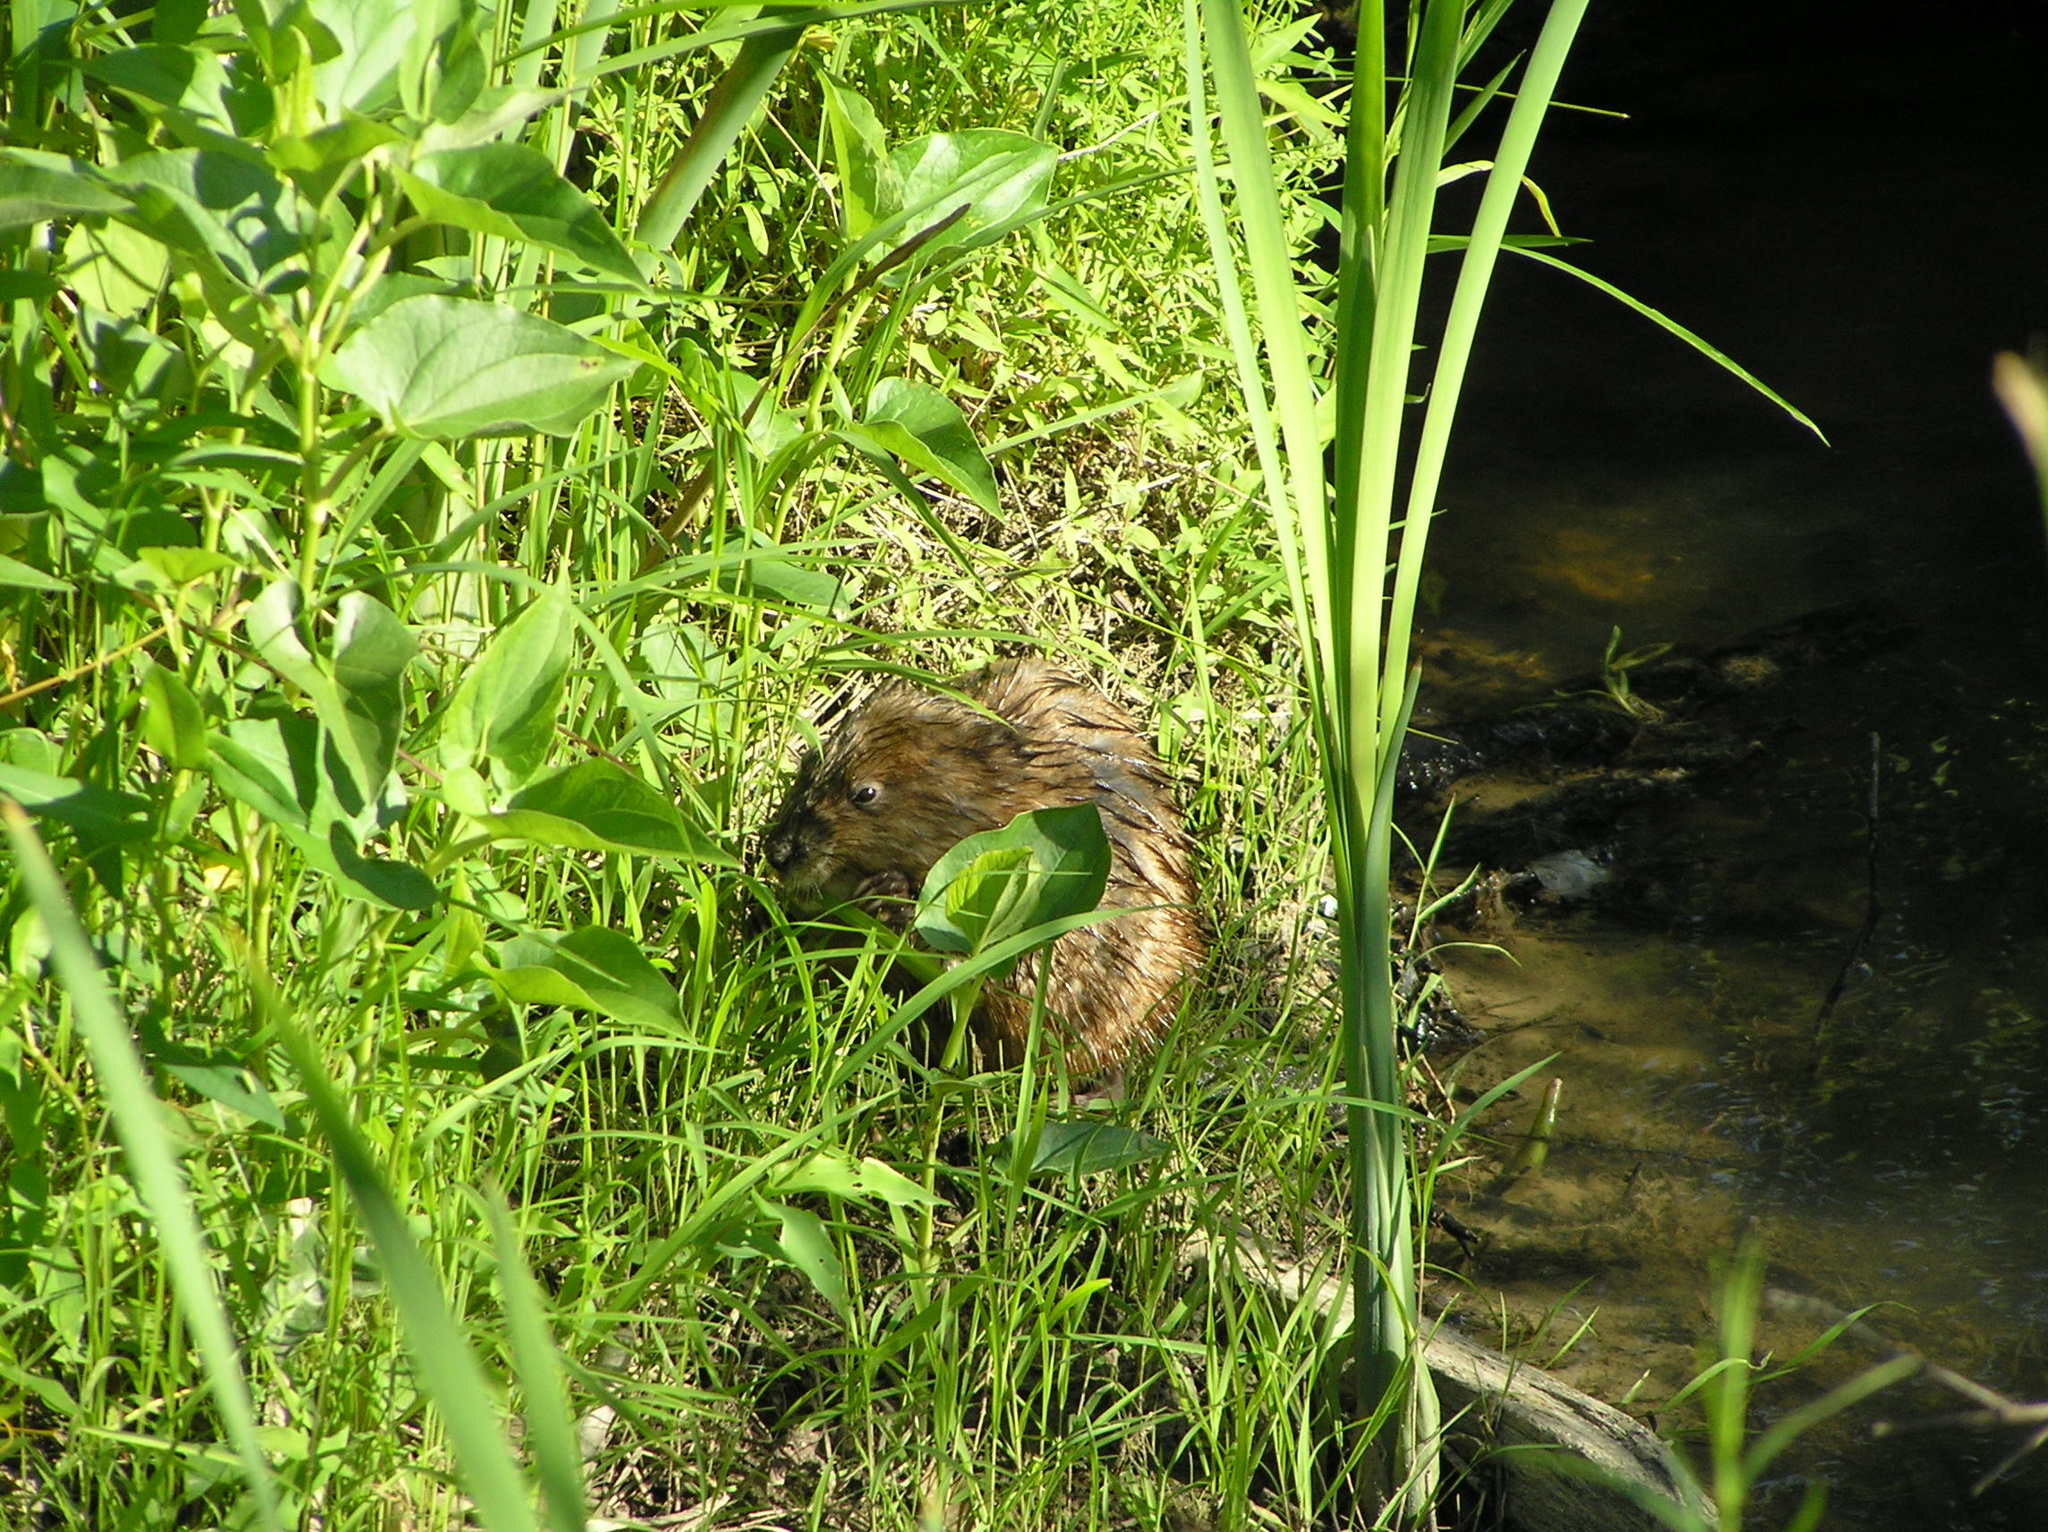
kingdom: Animalia
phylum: Chordata
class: Mammalia
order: Rodentia
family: Cricetidae
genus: Ondatra
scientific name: Ondatra zibethicus
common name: Muskrat
